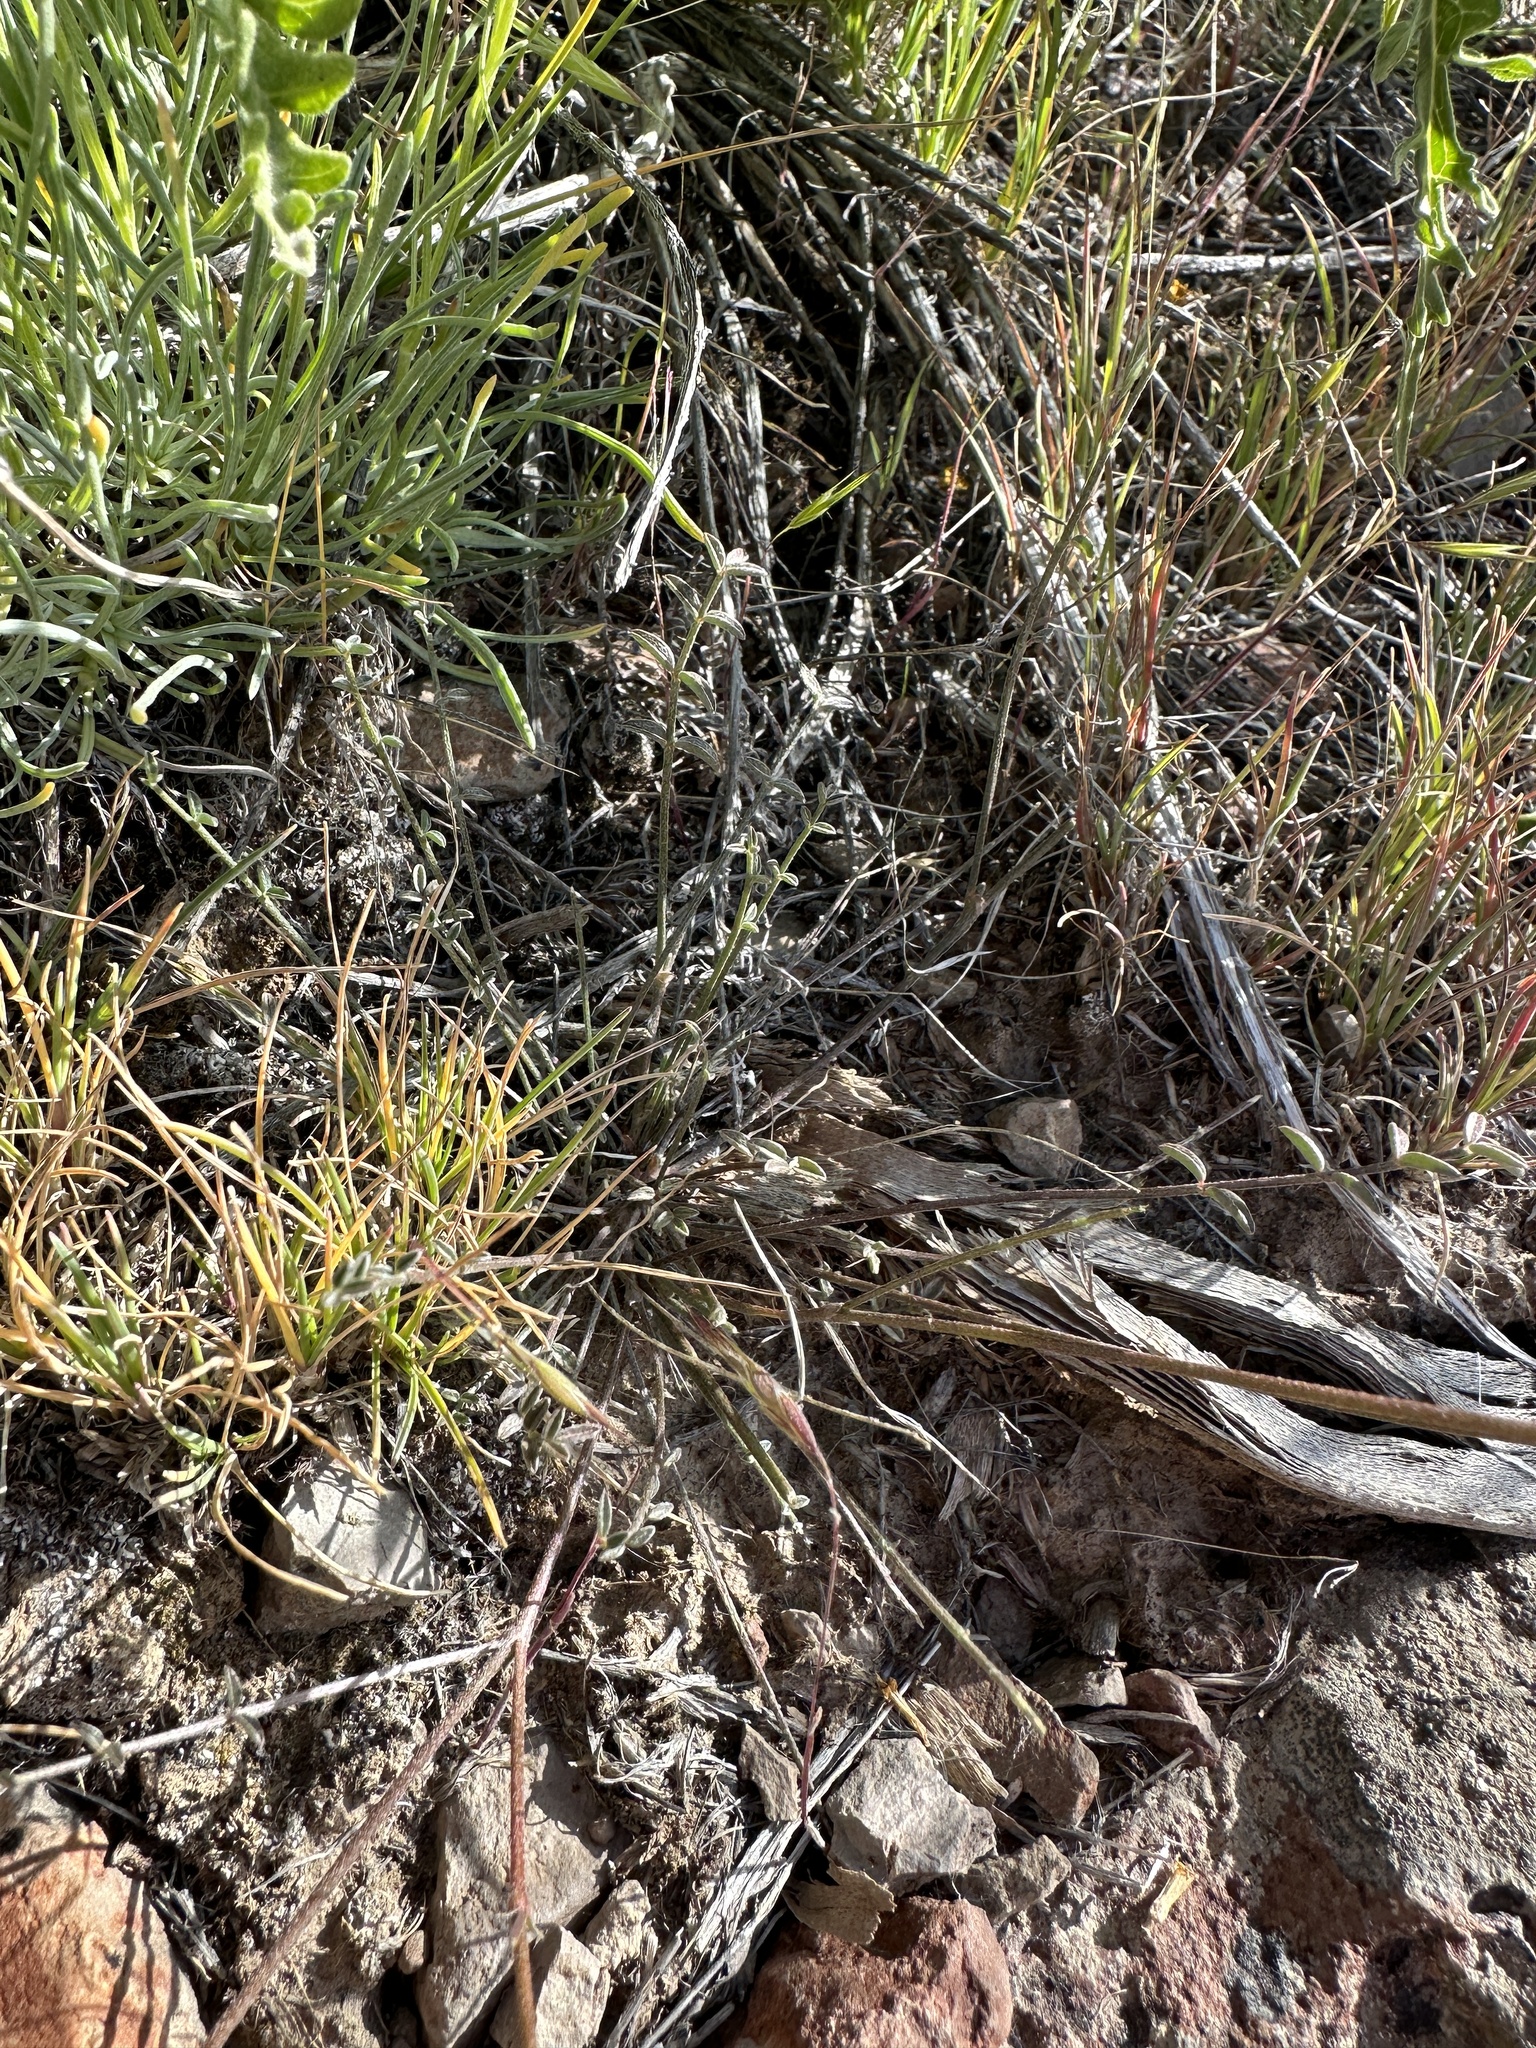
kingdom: Plantae
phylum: Tracheophyta
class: Magnoliopsida
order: Fabales
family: Fabaceae
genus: Astragalus
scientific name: Astragalus obscurus
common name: Arcane milk-vetch
